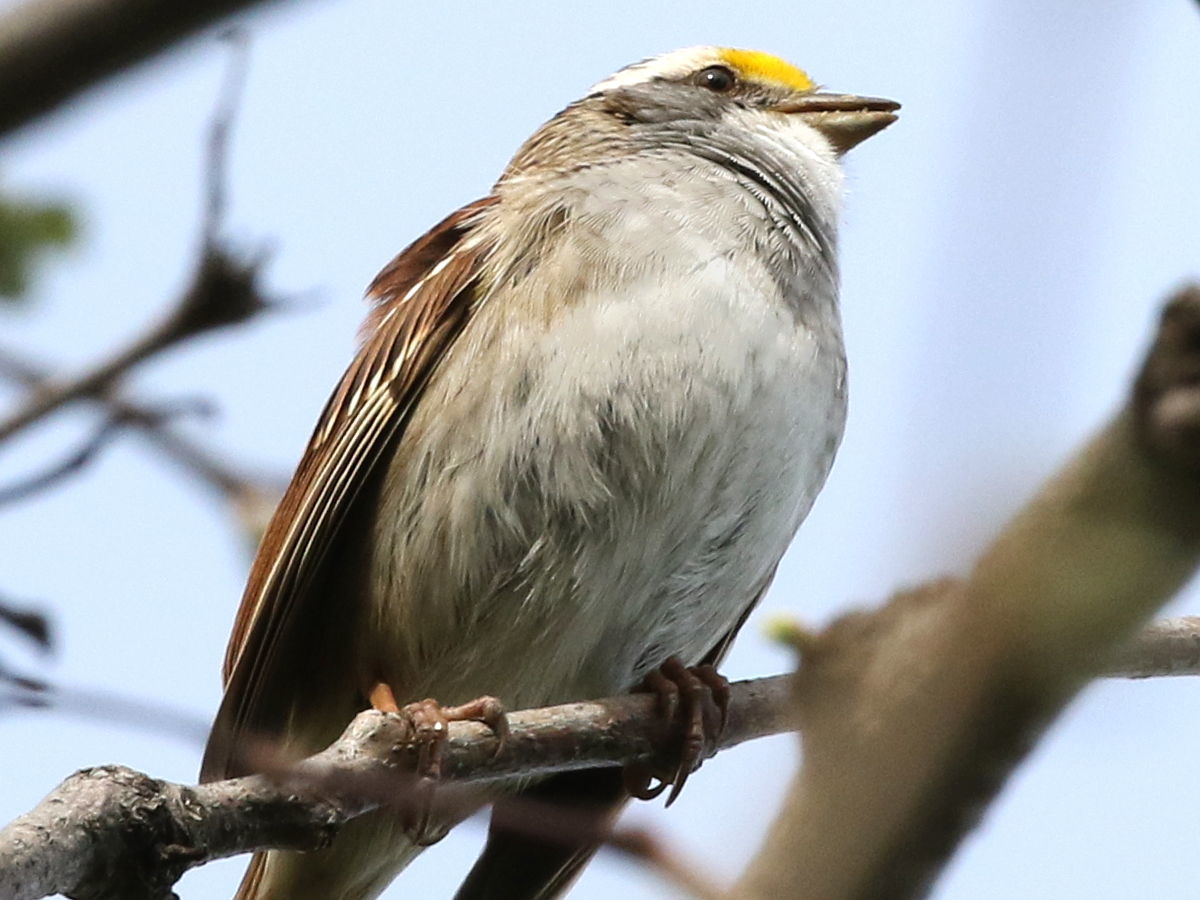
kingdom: Animalia
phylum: Chordata
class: Aves
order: Passeriformes
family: Passerellidae
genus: Zonotrichia
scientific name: Zonotrichia albicollis
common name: White-throated sparrow
